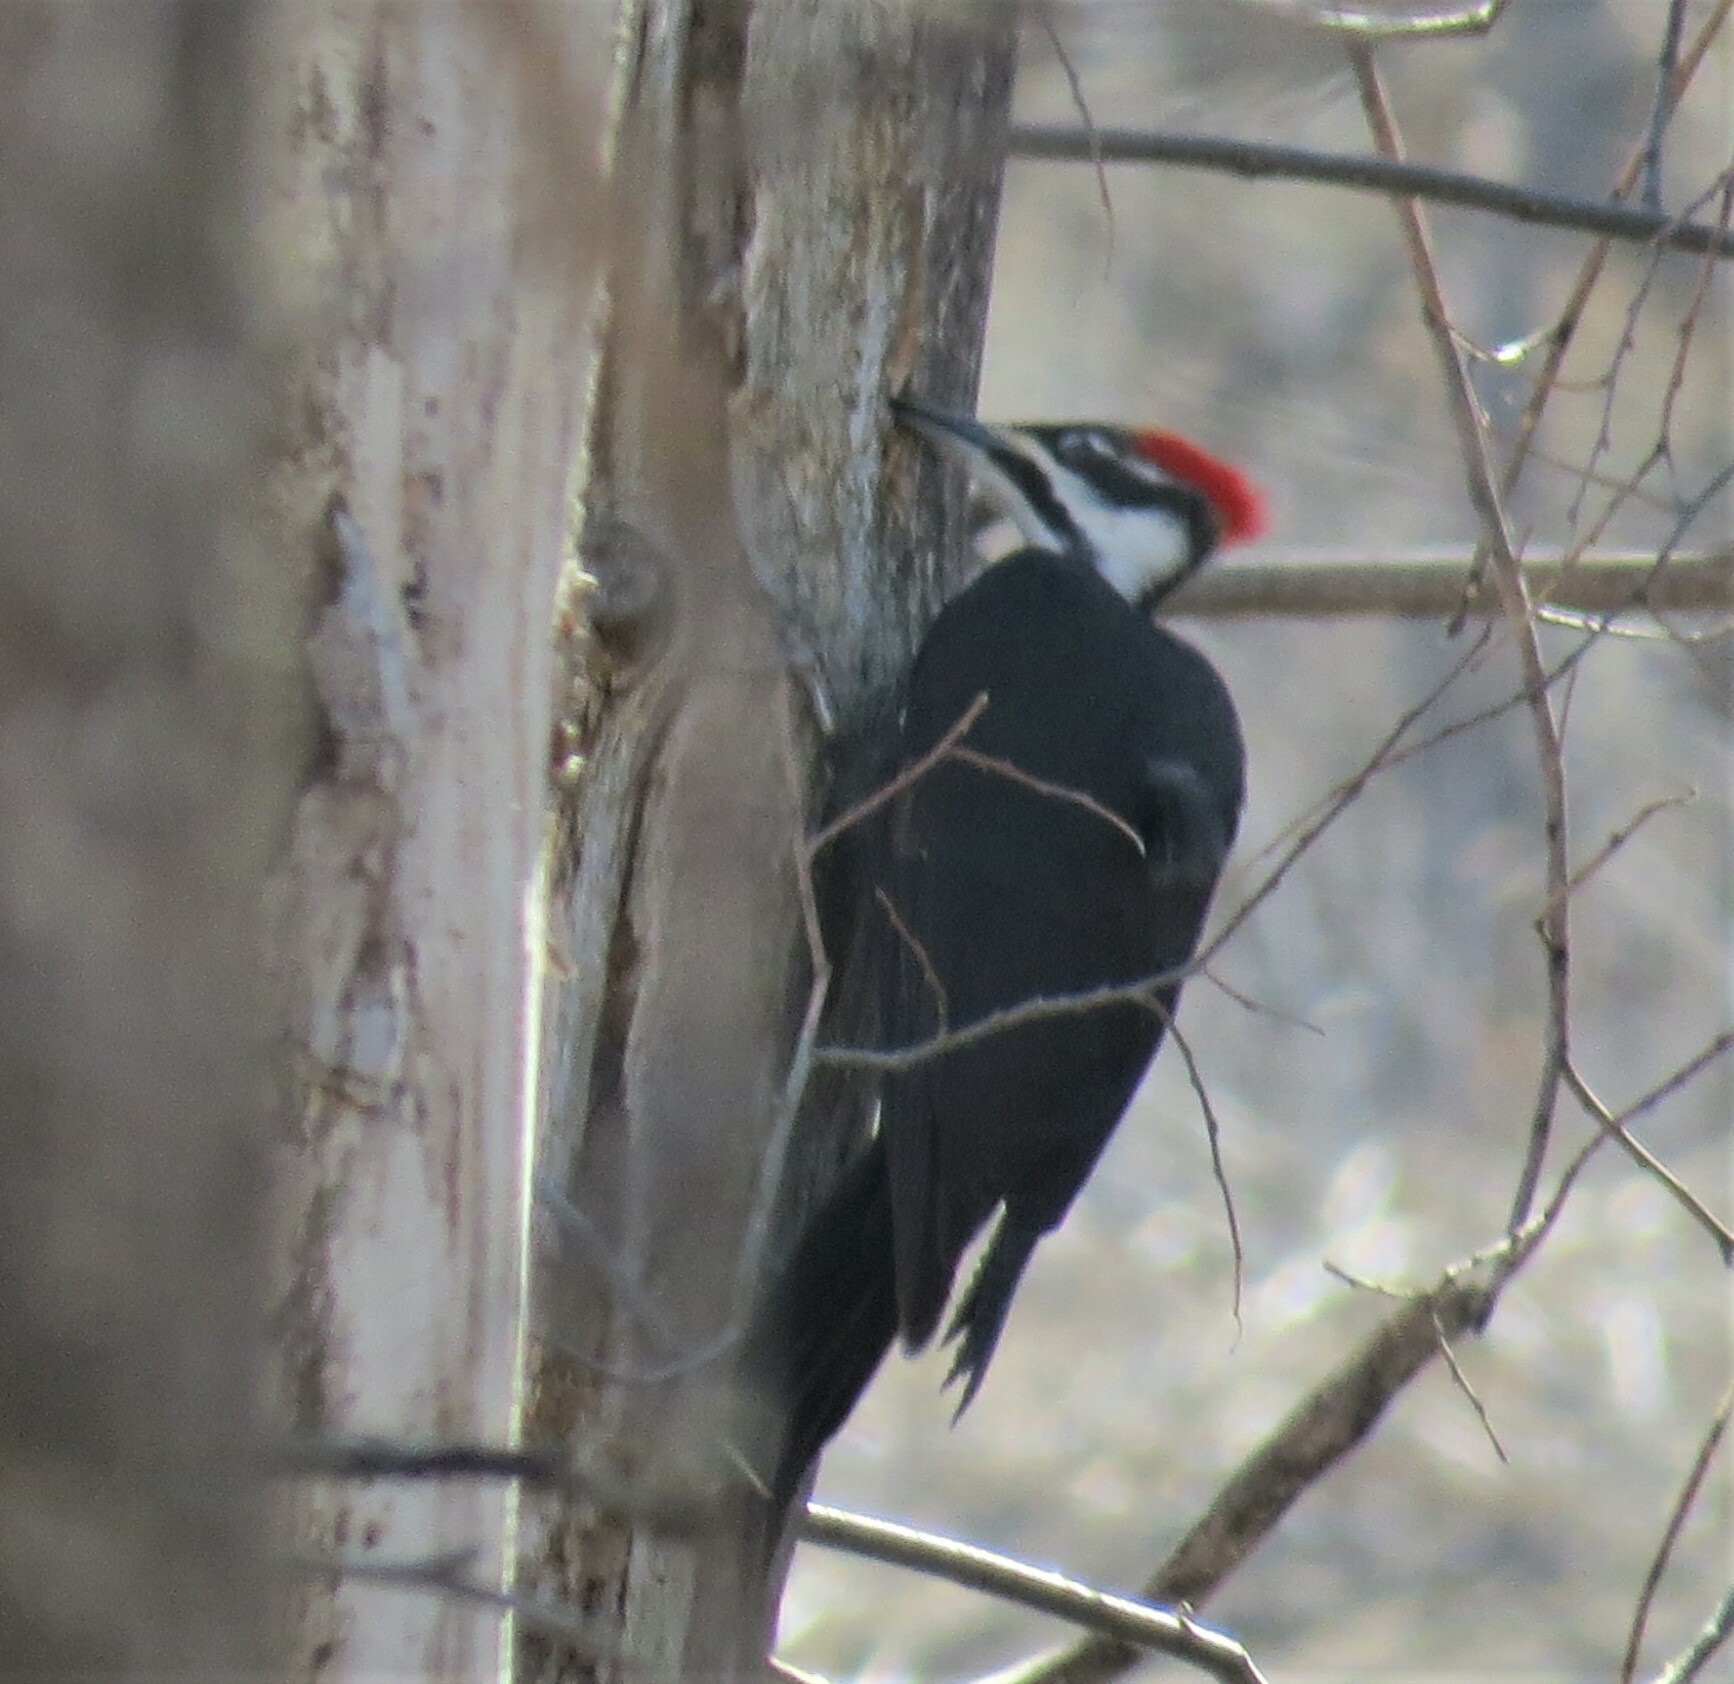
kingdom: Animalia
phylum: Chordata
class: Aves
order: Piciformes
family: Picidae
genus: Dryocopus
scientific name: Dryocopus pileatus
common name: Pileated woodpecker
